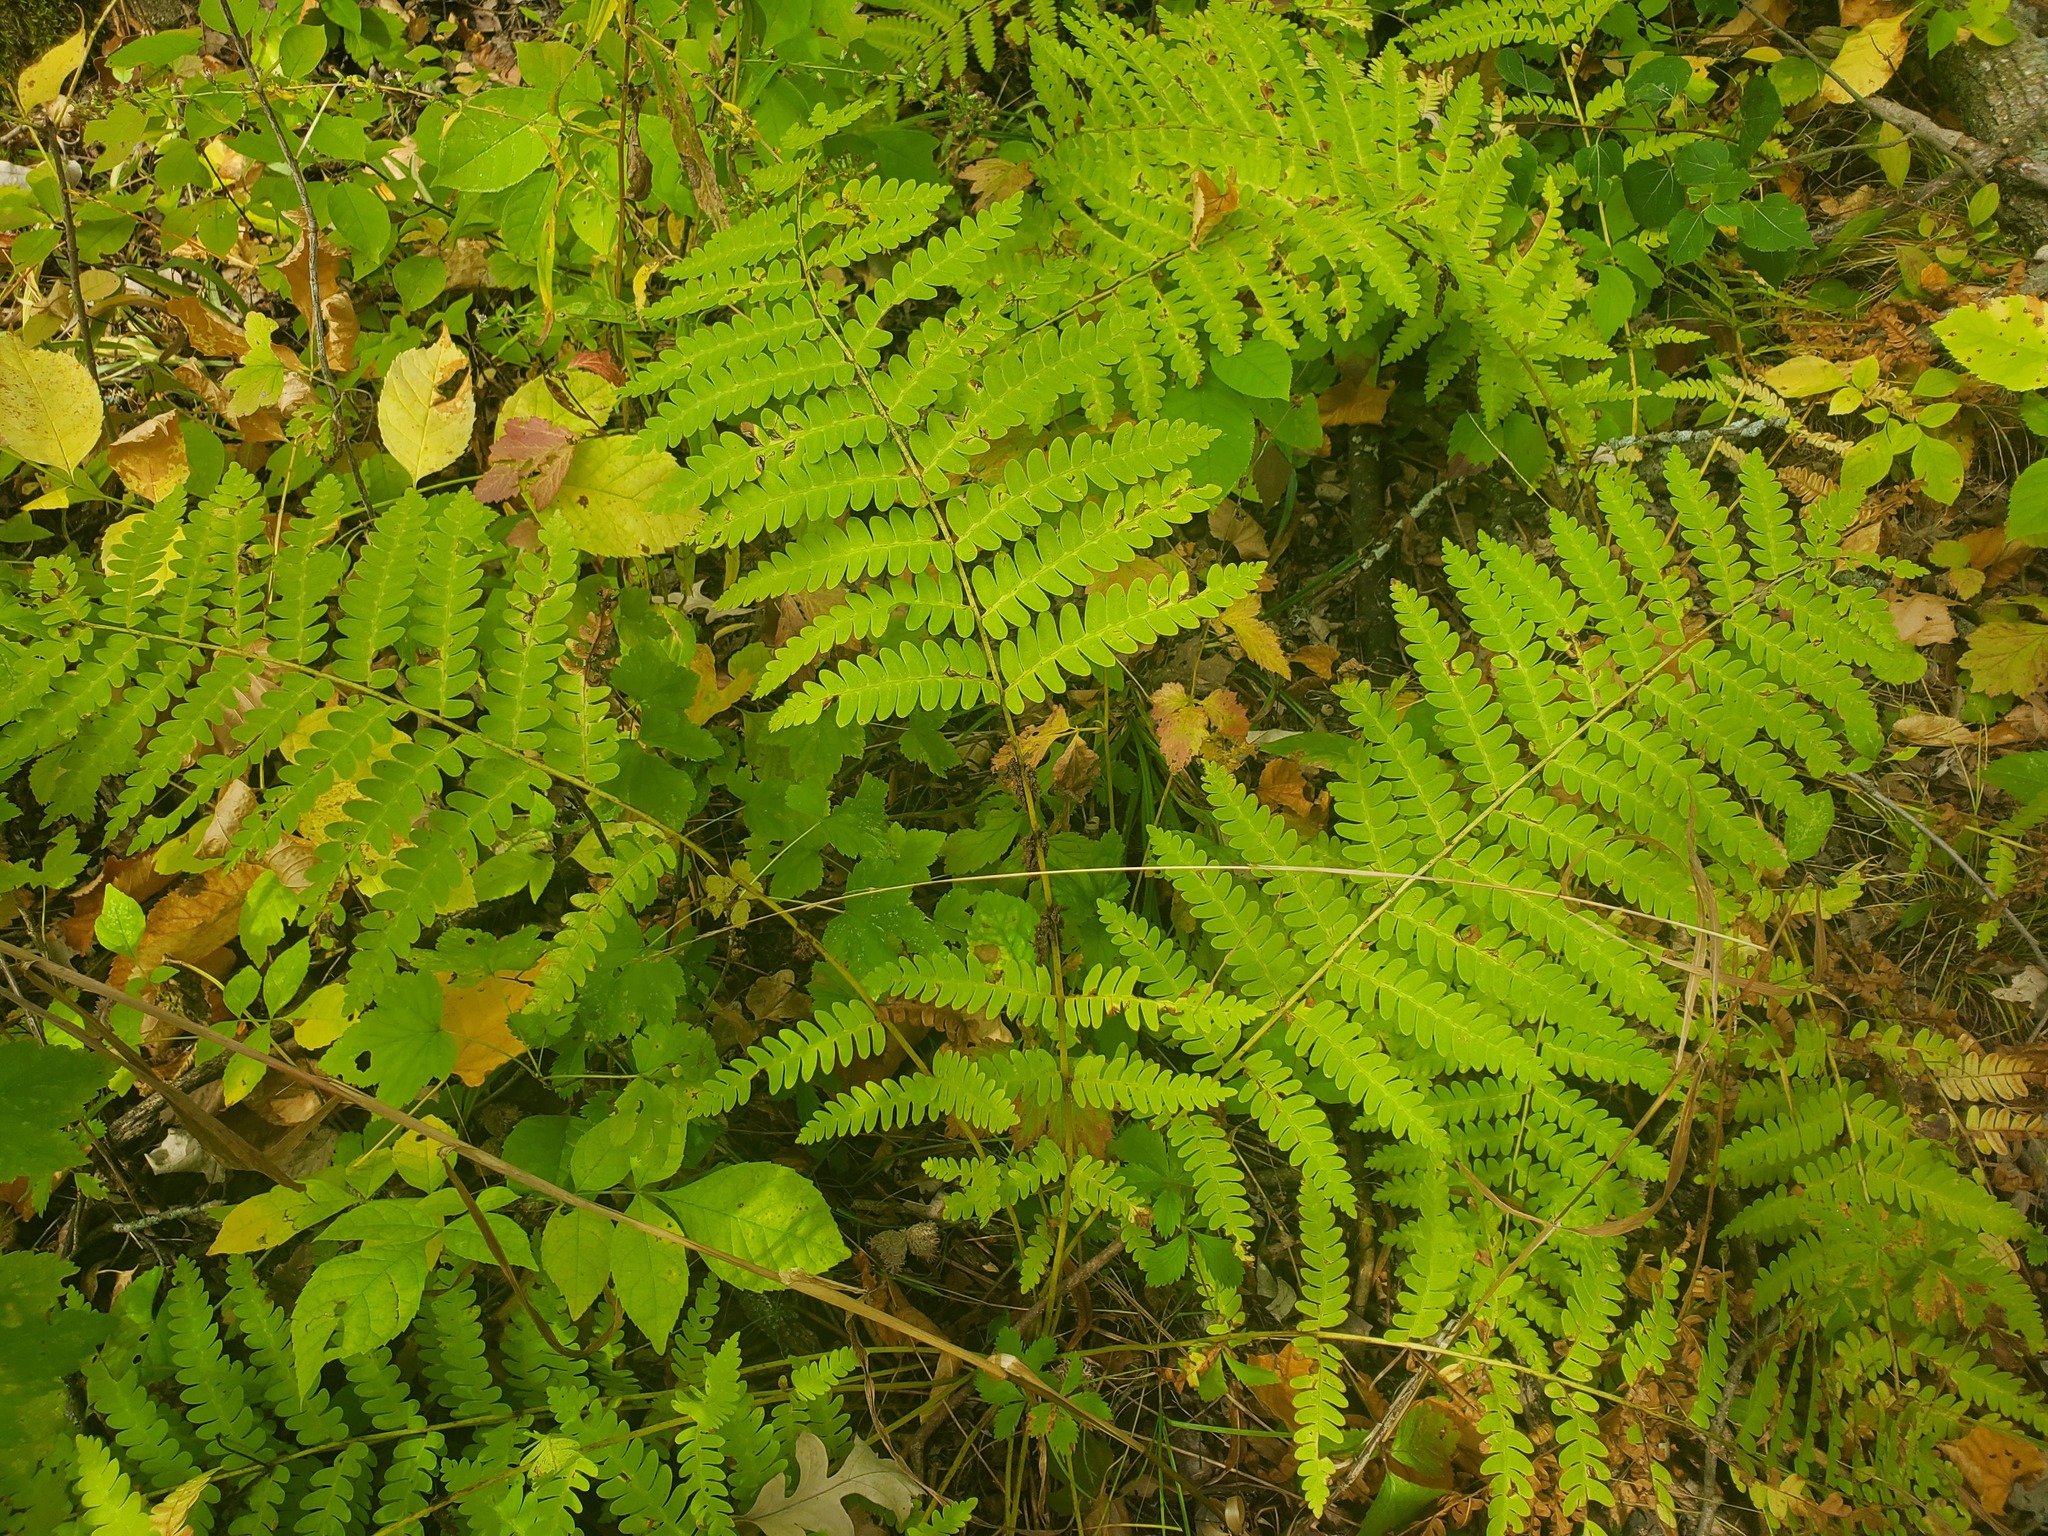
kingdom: Plantae
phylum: Tracheophyta
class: Polypodiopsida
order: Osmundales
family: Osmundaceae
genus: Claytosmunda
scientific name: Claytosmunda claytoniana
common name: Clayton's fern
